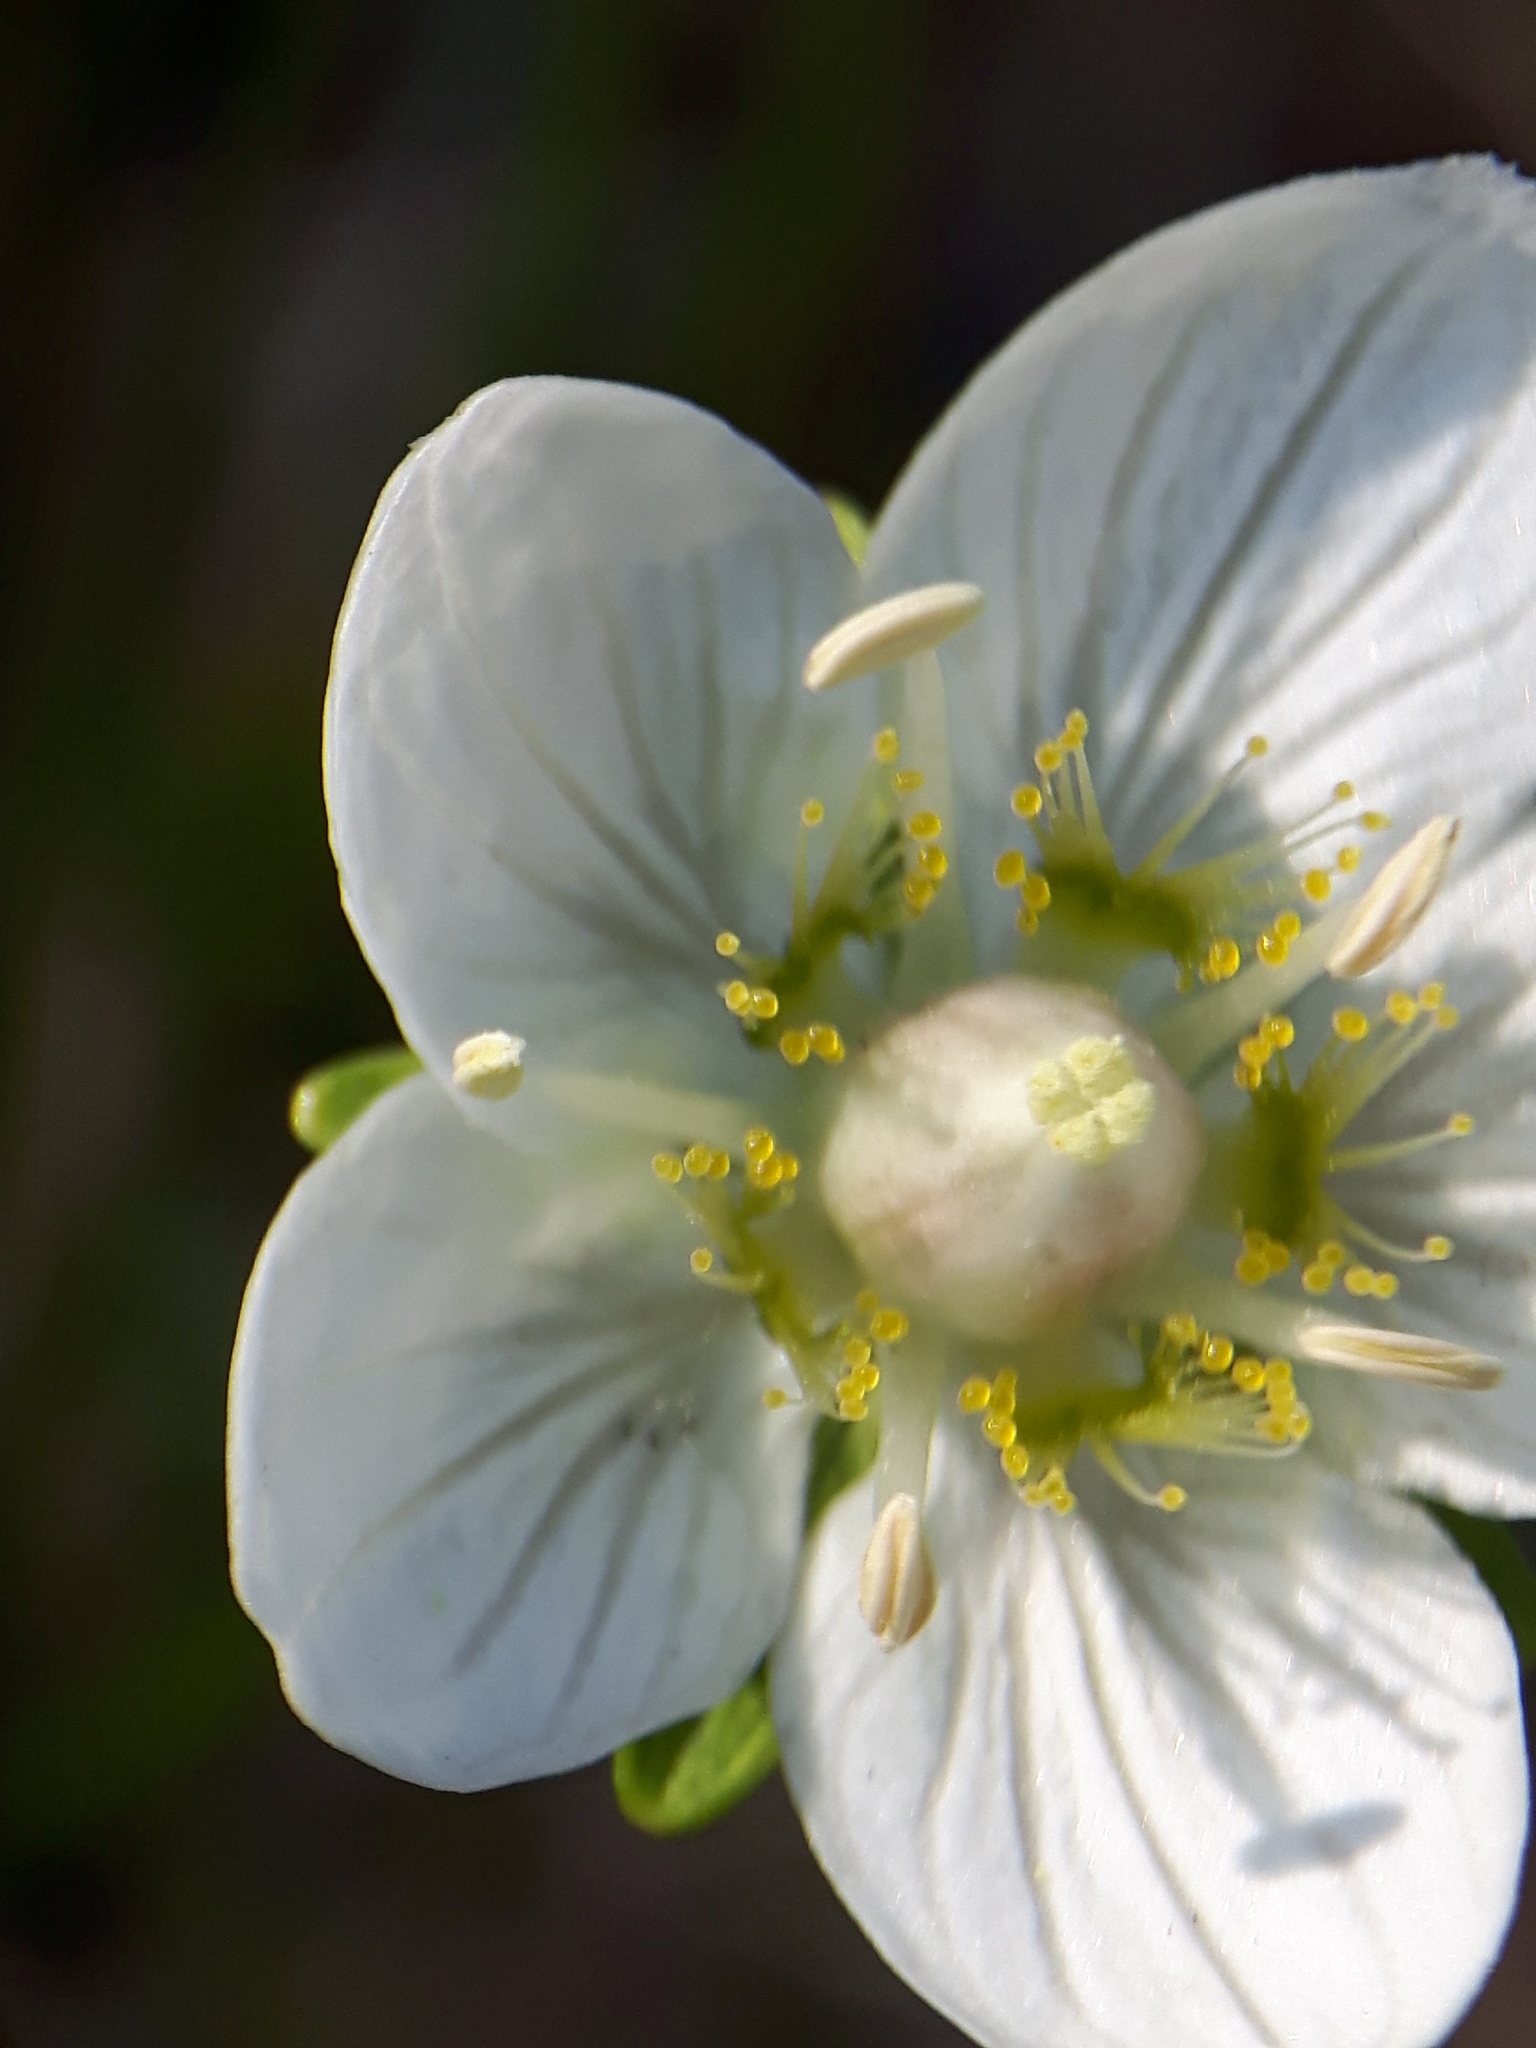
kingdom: Plantae
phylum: Tracheophyta
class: Magnoliopsida
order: Celastrales
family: Parnassiaceae
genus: Parnassia
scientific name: Parnassia palustris
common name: Grass-of-parnassus
